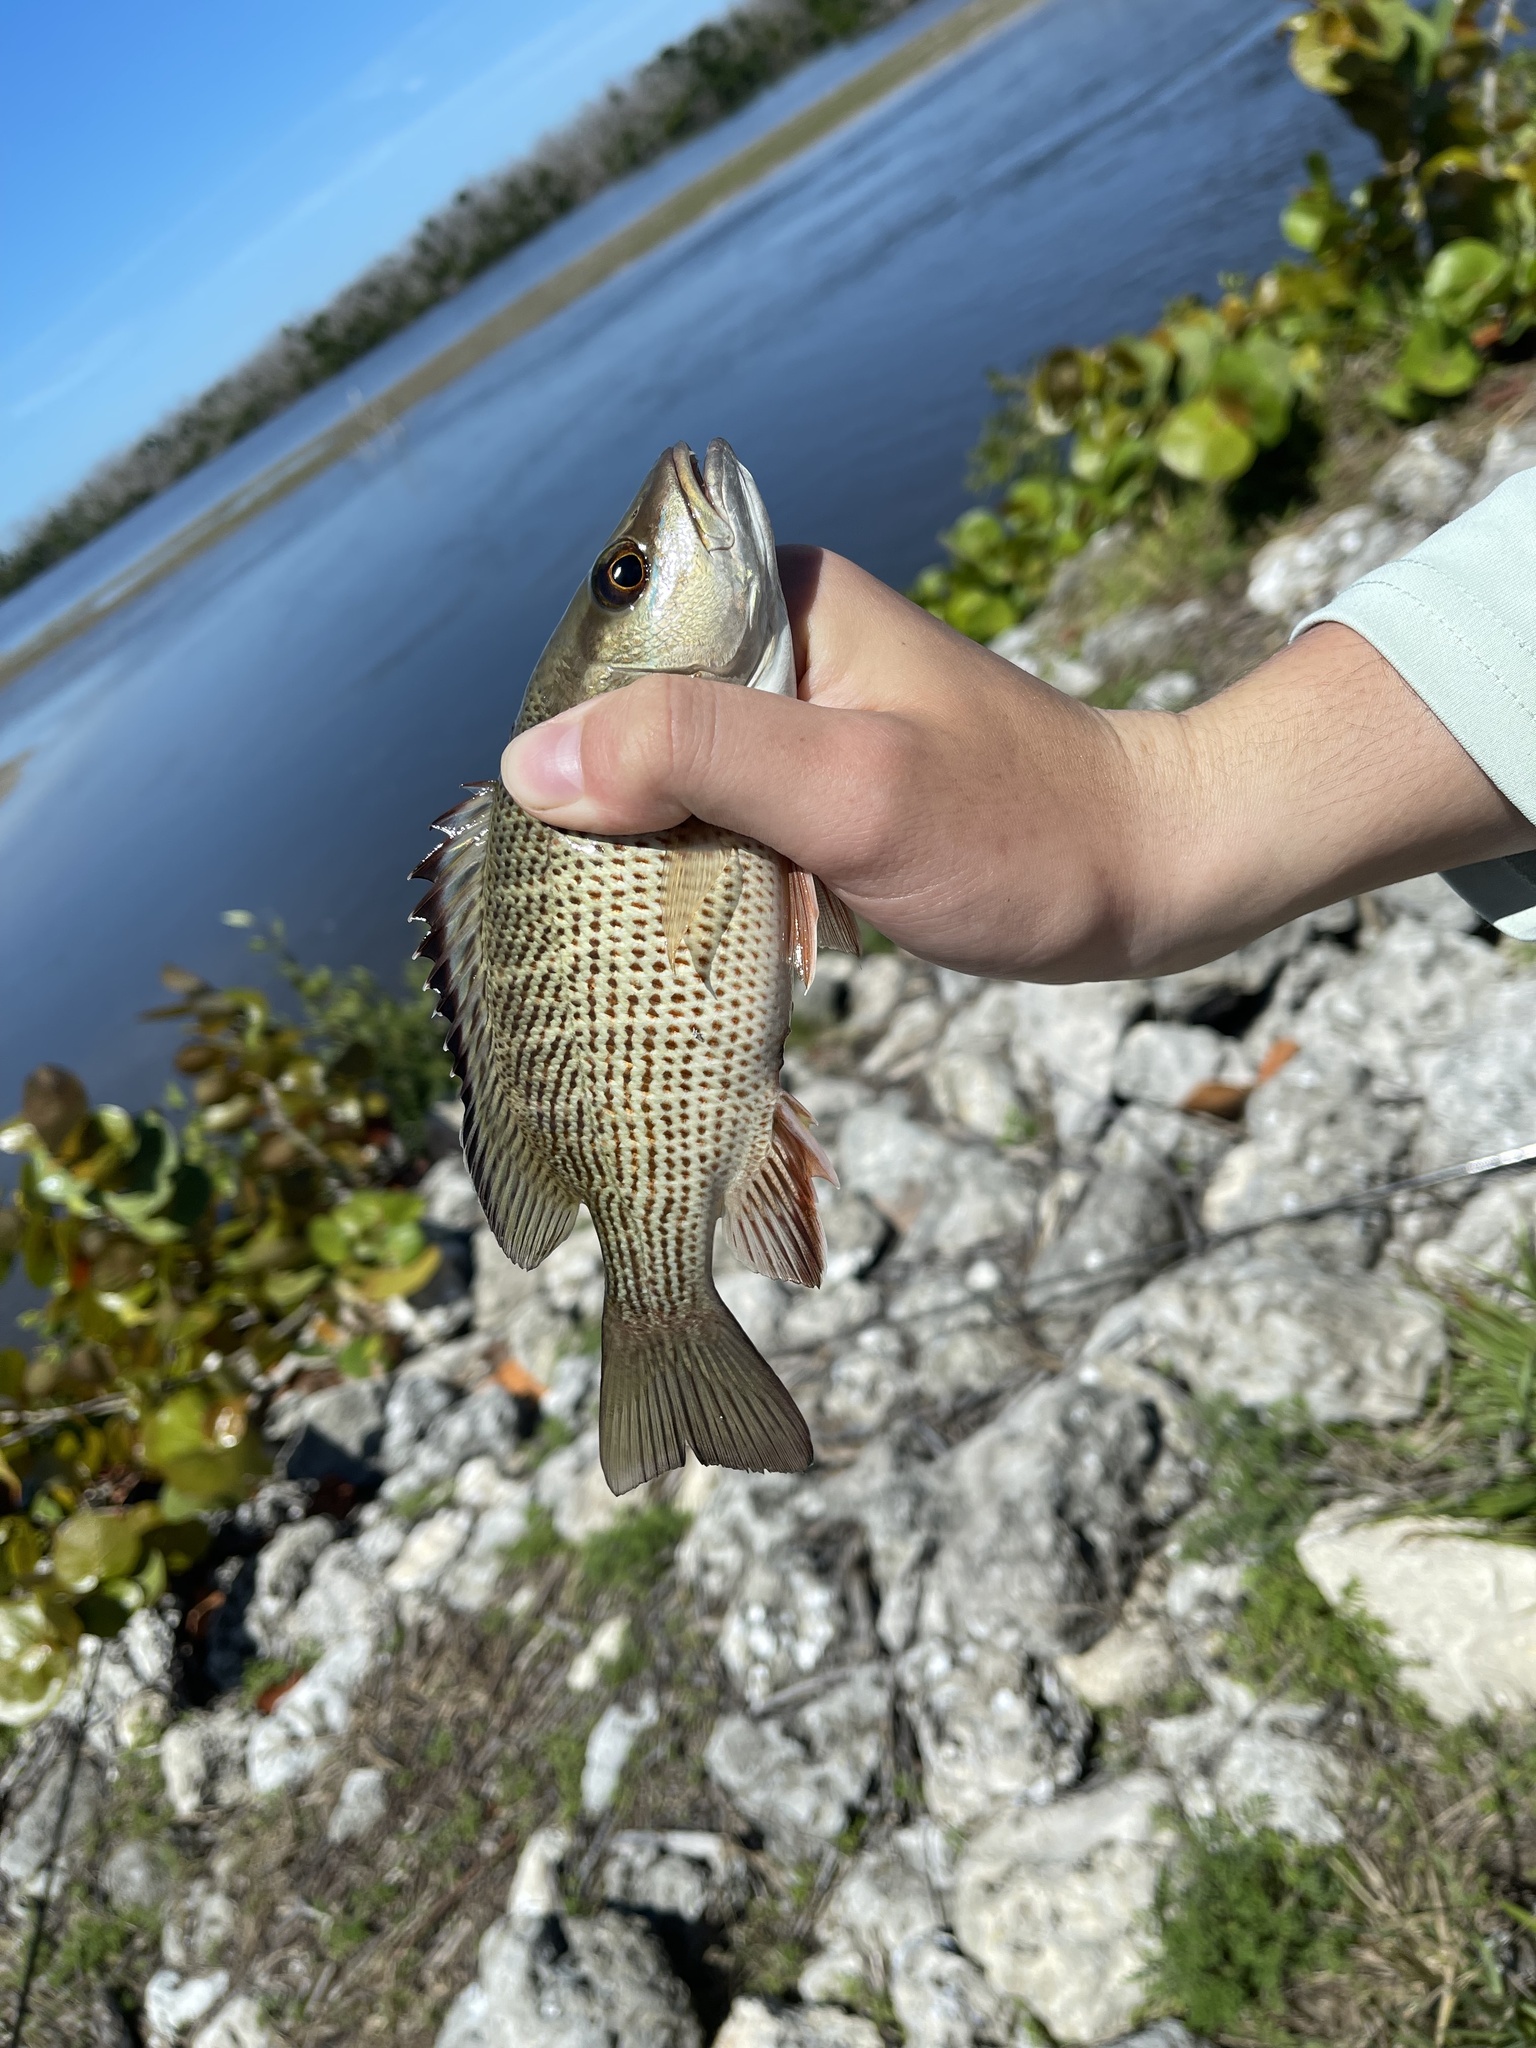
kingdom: Animalia
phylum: Chordata
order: Perciformes
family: Lutjanidae
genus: Lutjanus
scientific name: Lutjanus griseus
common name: Gray snapper
